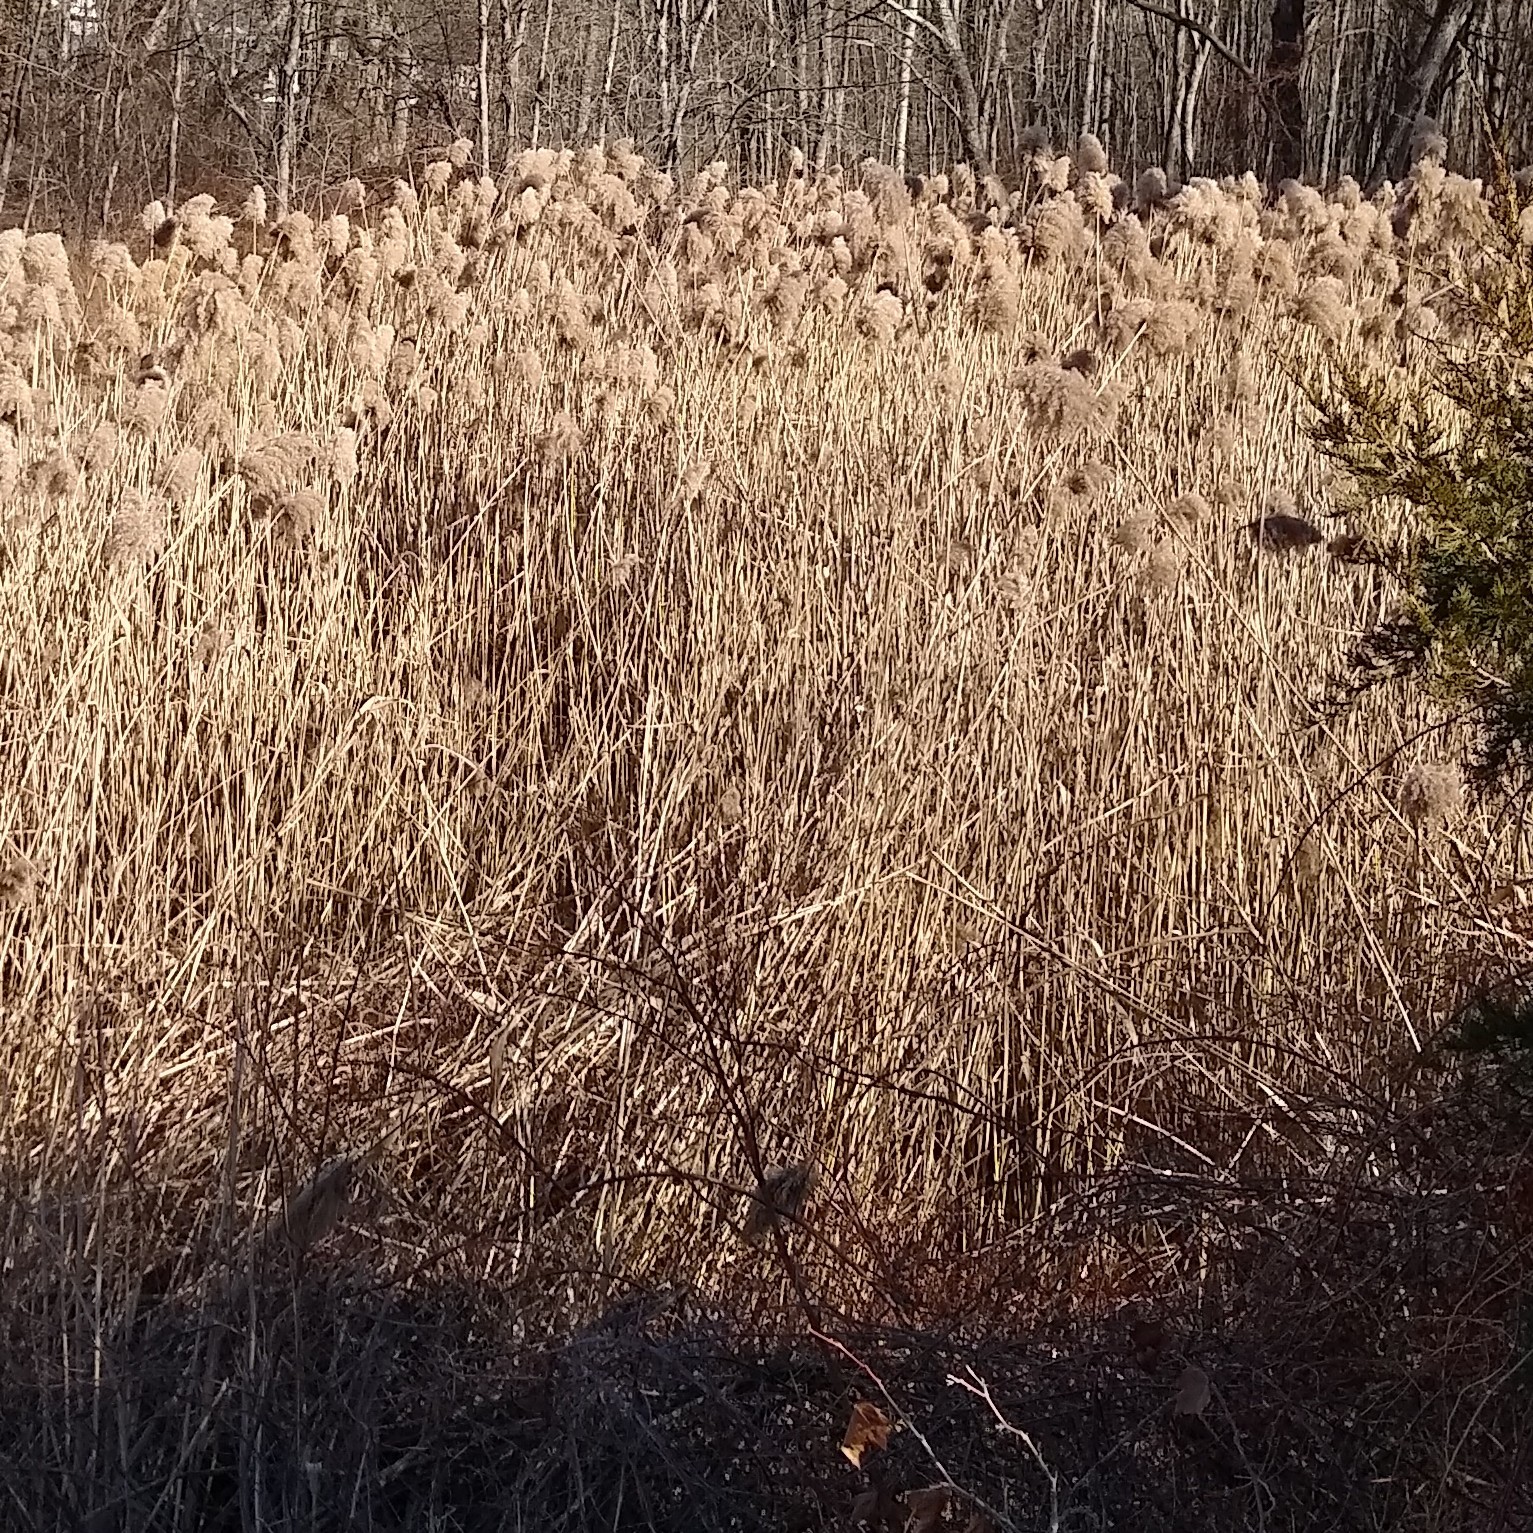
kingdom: Plantae
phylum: Tracheophyta
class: Liliopsida
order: Poales
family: Poaceae
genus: Phragmites
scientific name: Phragmites australis
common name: Common reed
